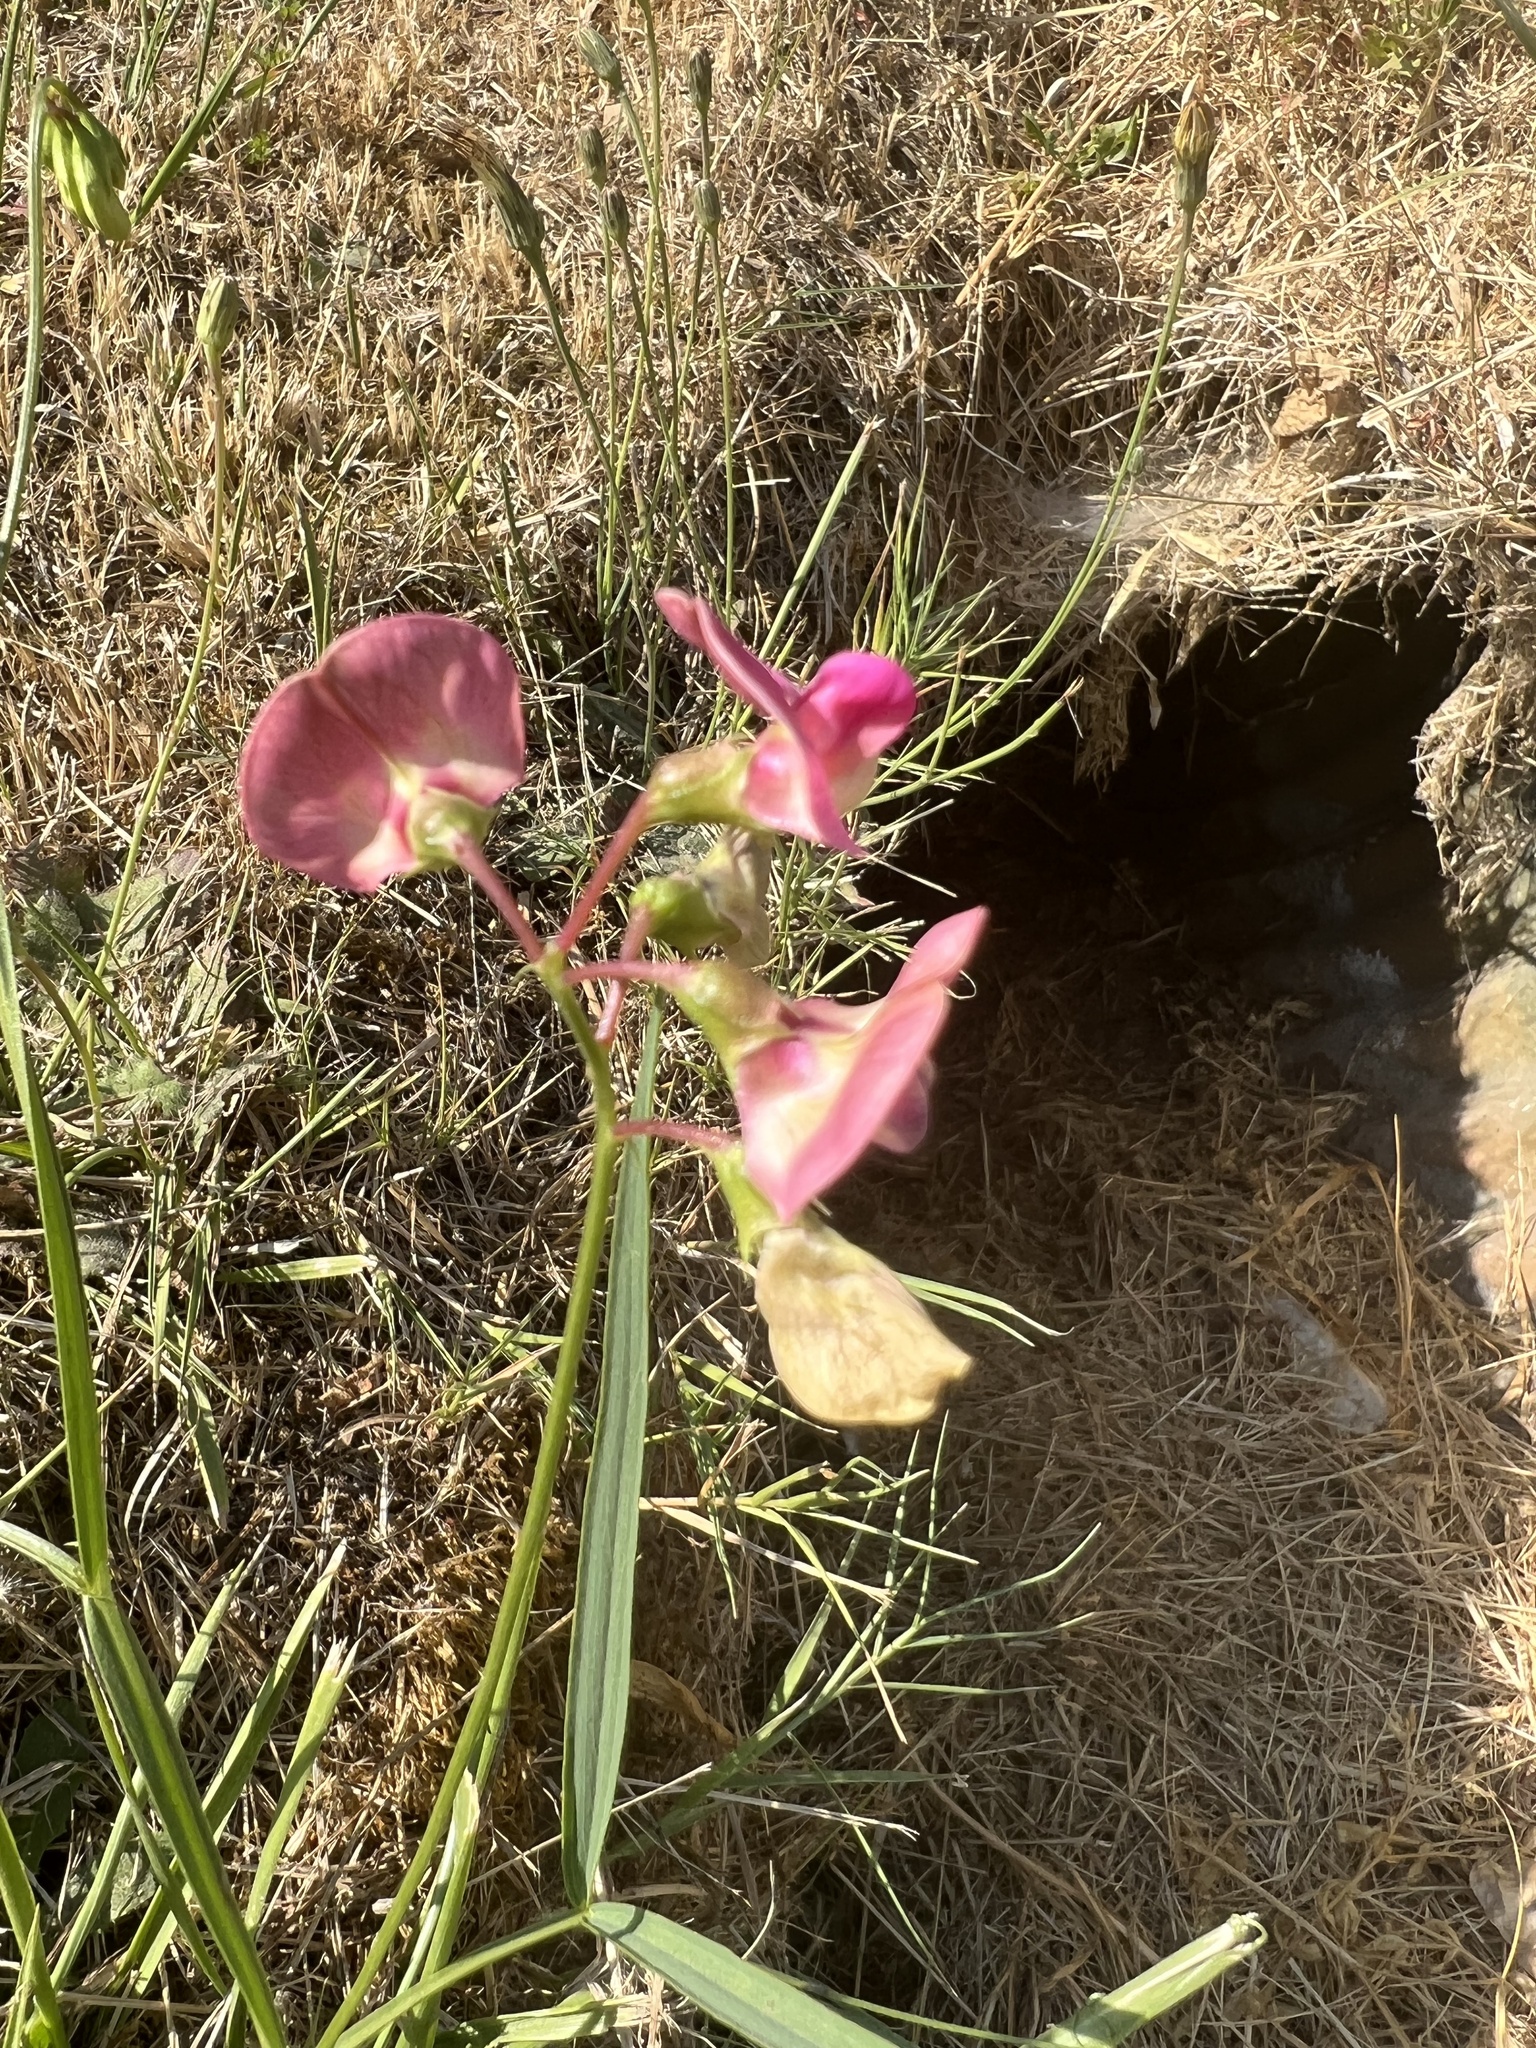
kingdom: Plantae
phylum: Tracheophyta
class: Magnoliopsida
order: Fabales
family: Fabaceae
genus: Lathyrus
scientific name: Lathyrus sylvestris
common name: Flat pea
